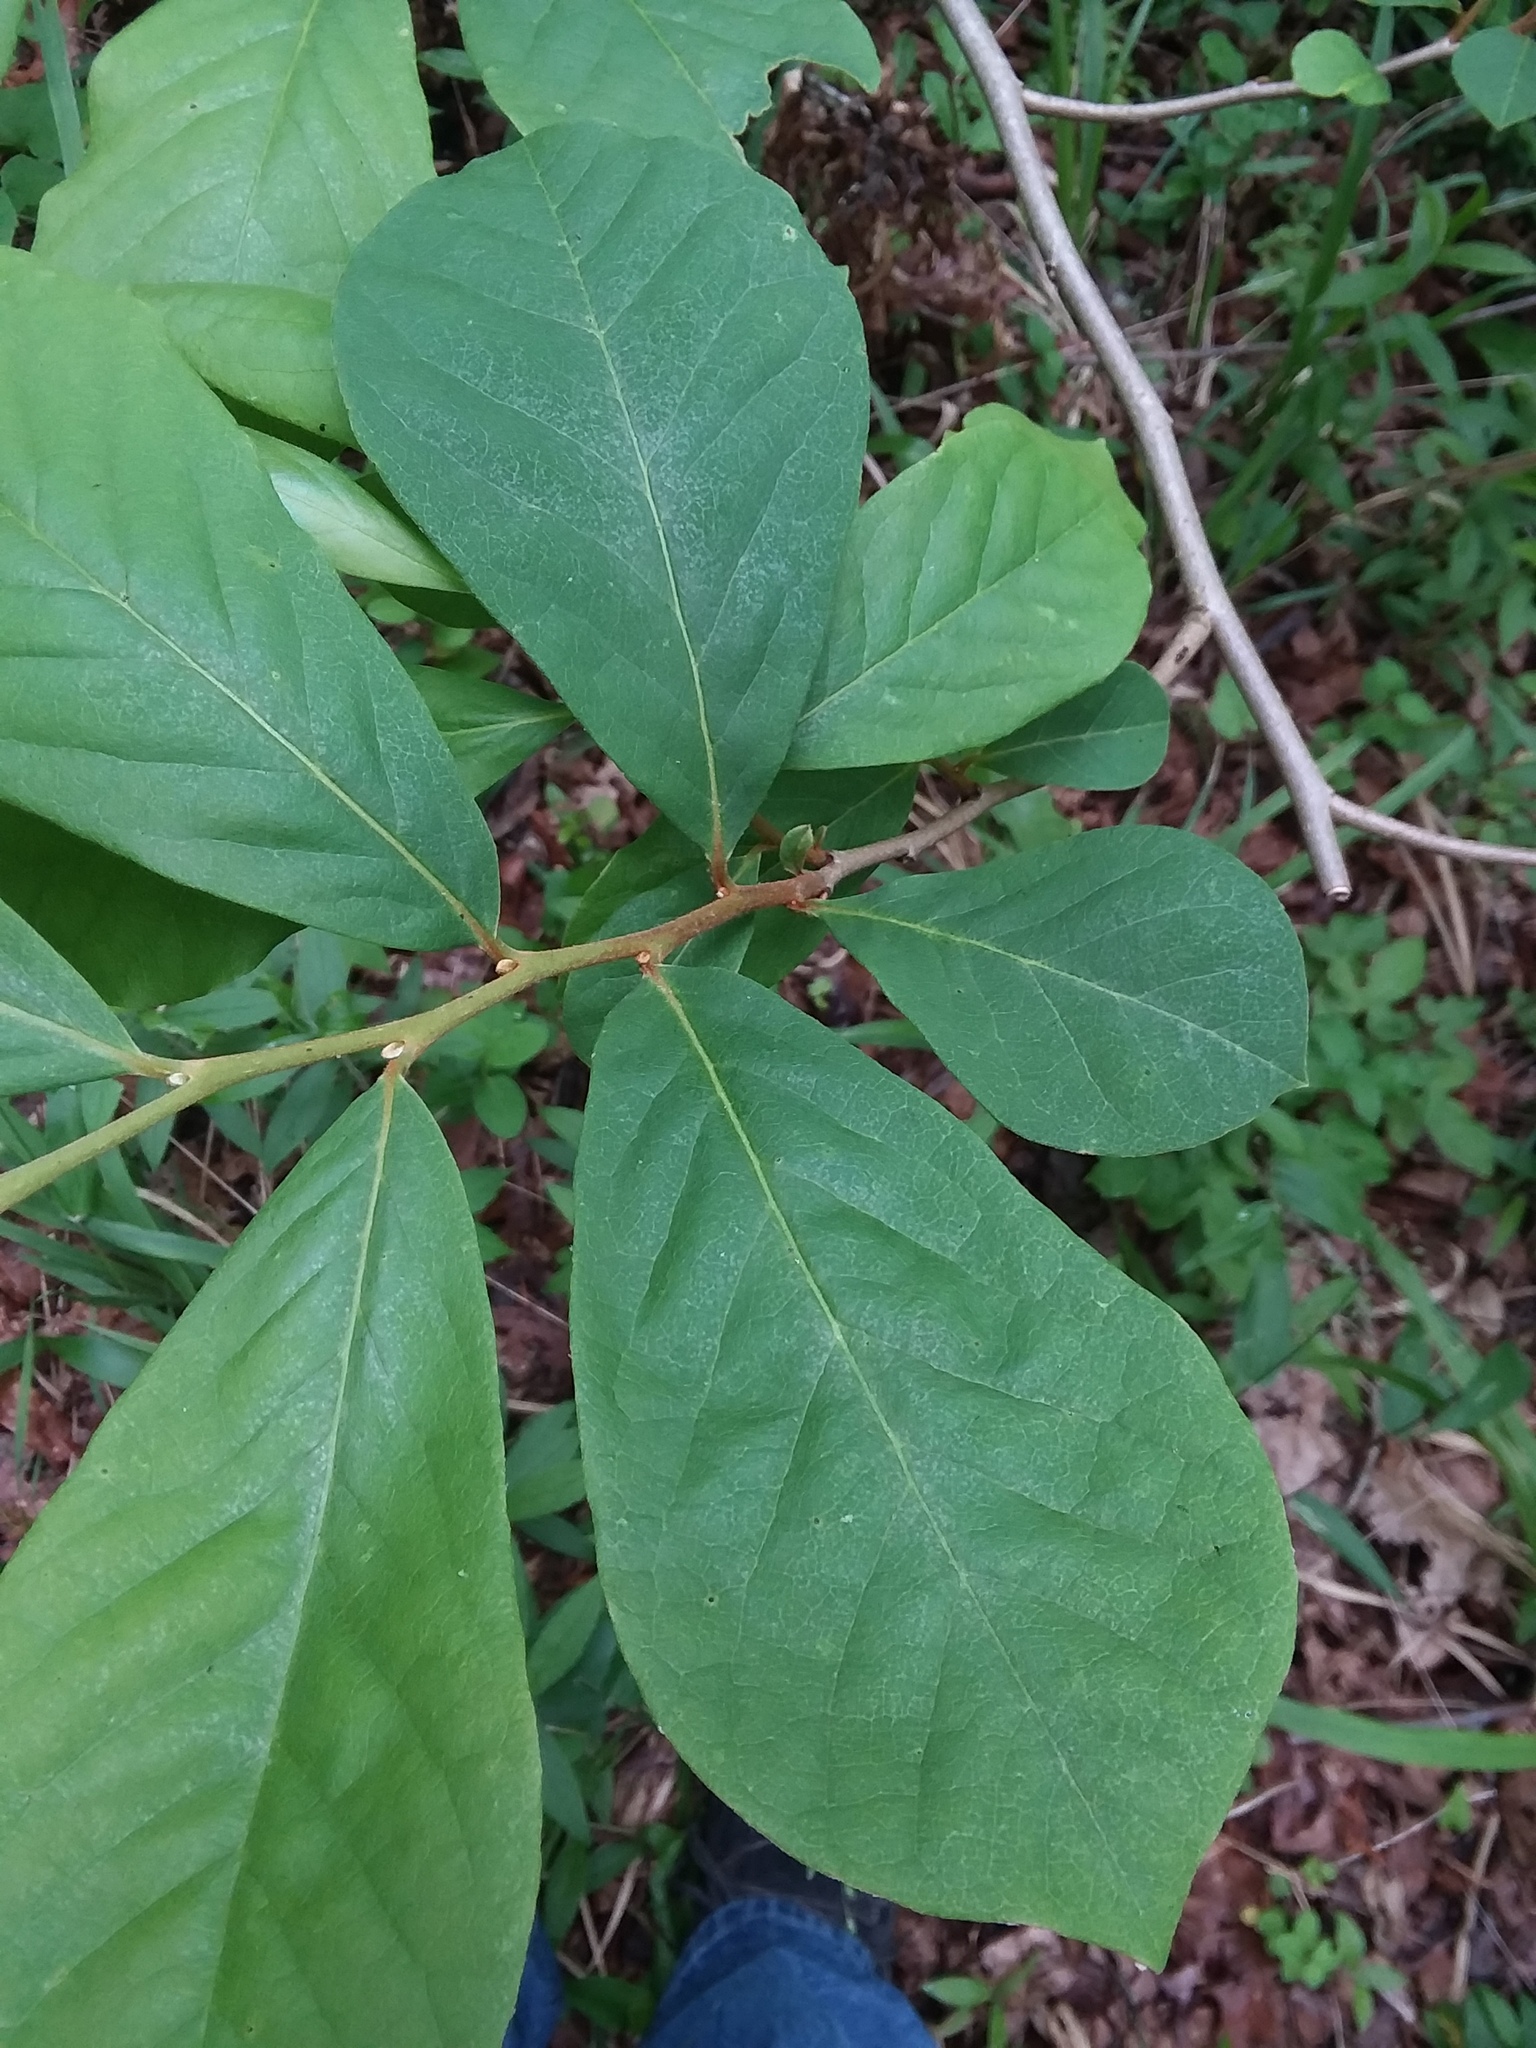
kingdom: Plantae
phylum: Tracheophyta
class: Magnoliopsida
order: Magnoliales
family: Annonaceae
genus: Asimina
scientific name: Asimina parviflora
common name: Dwarf pawpaw
